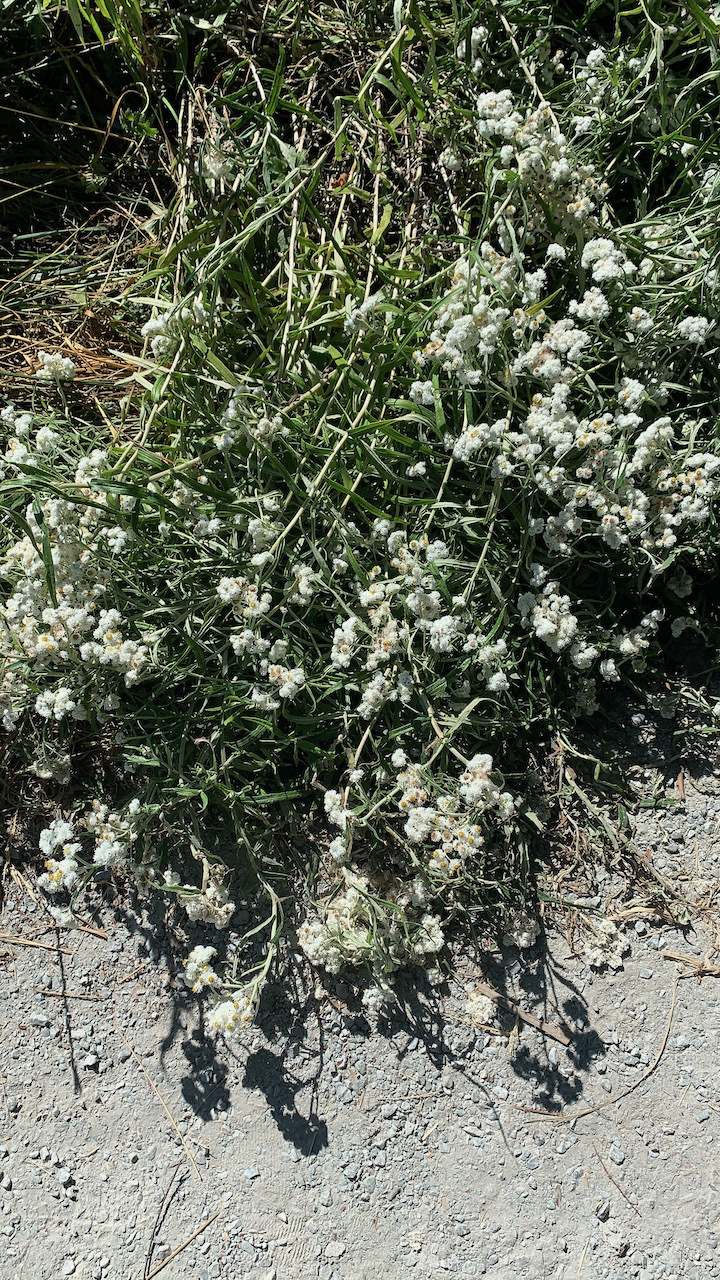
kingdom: Plantae
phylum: Tracheophyta
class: Magnoliopsida
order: Asterales
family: Asteraceae
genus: Anaphalis
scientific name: Anaphalis margaritacea
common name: Pearly everlasting
